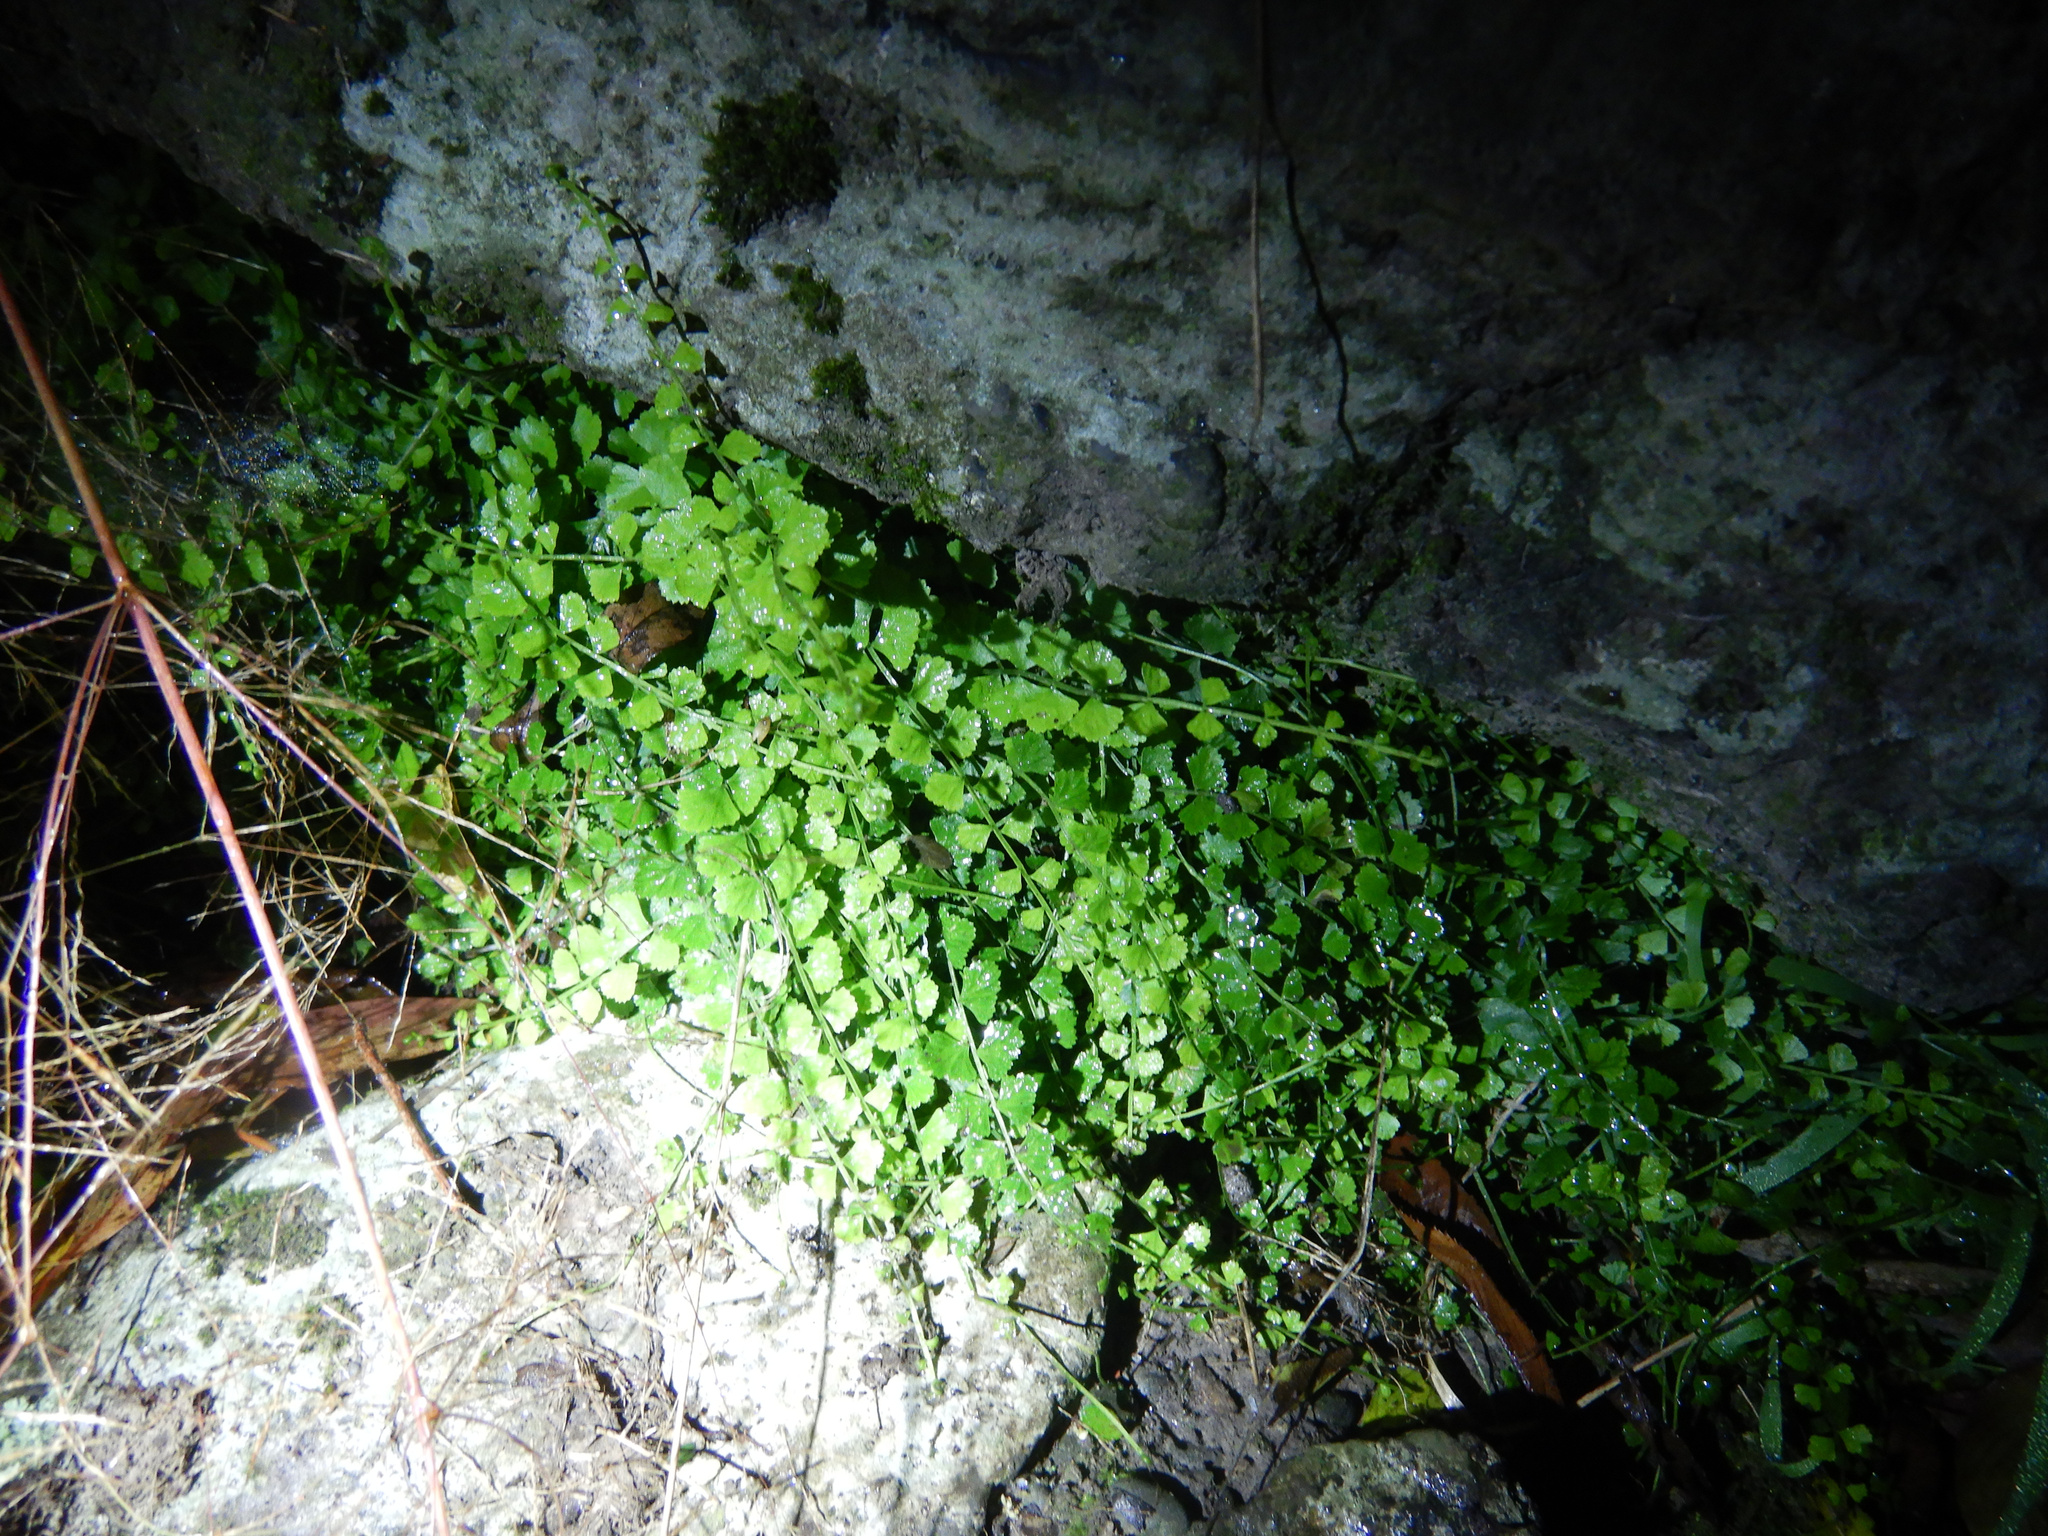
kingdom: Plantae
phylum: Tracheophyta
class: Polypodiopsida
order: Polypodiales
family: Aspleniaceae
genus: Asplenium
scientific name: Asplenium flabellifolium
